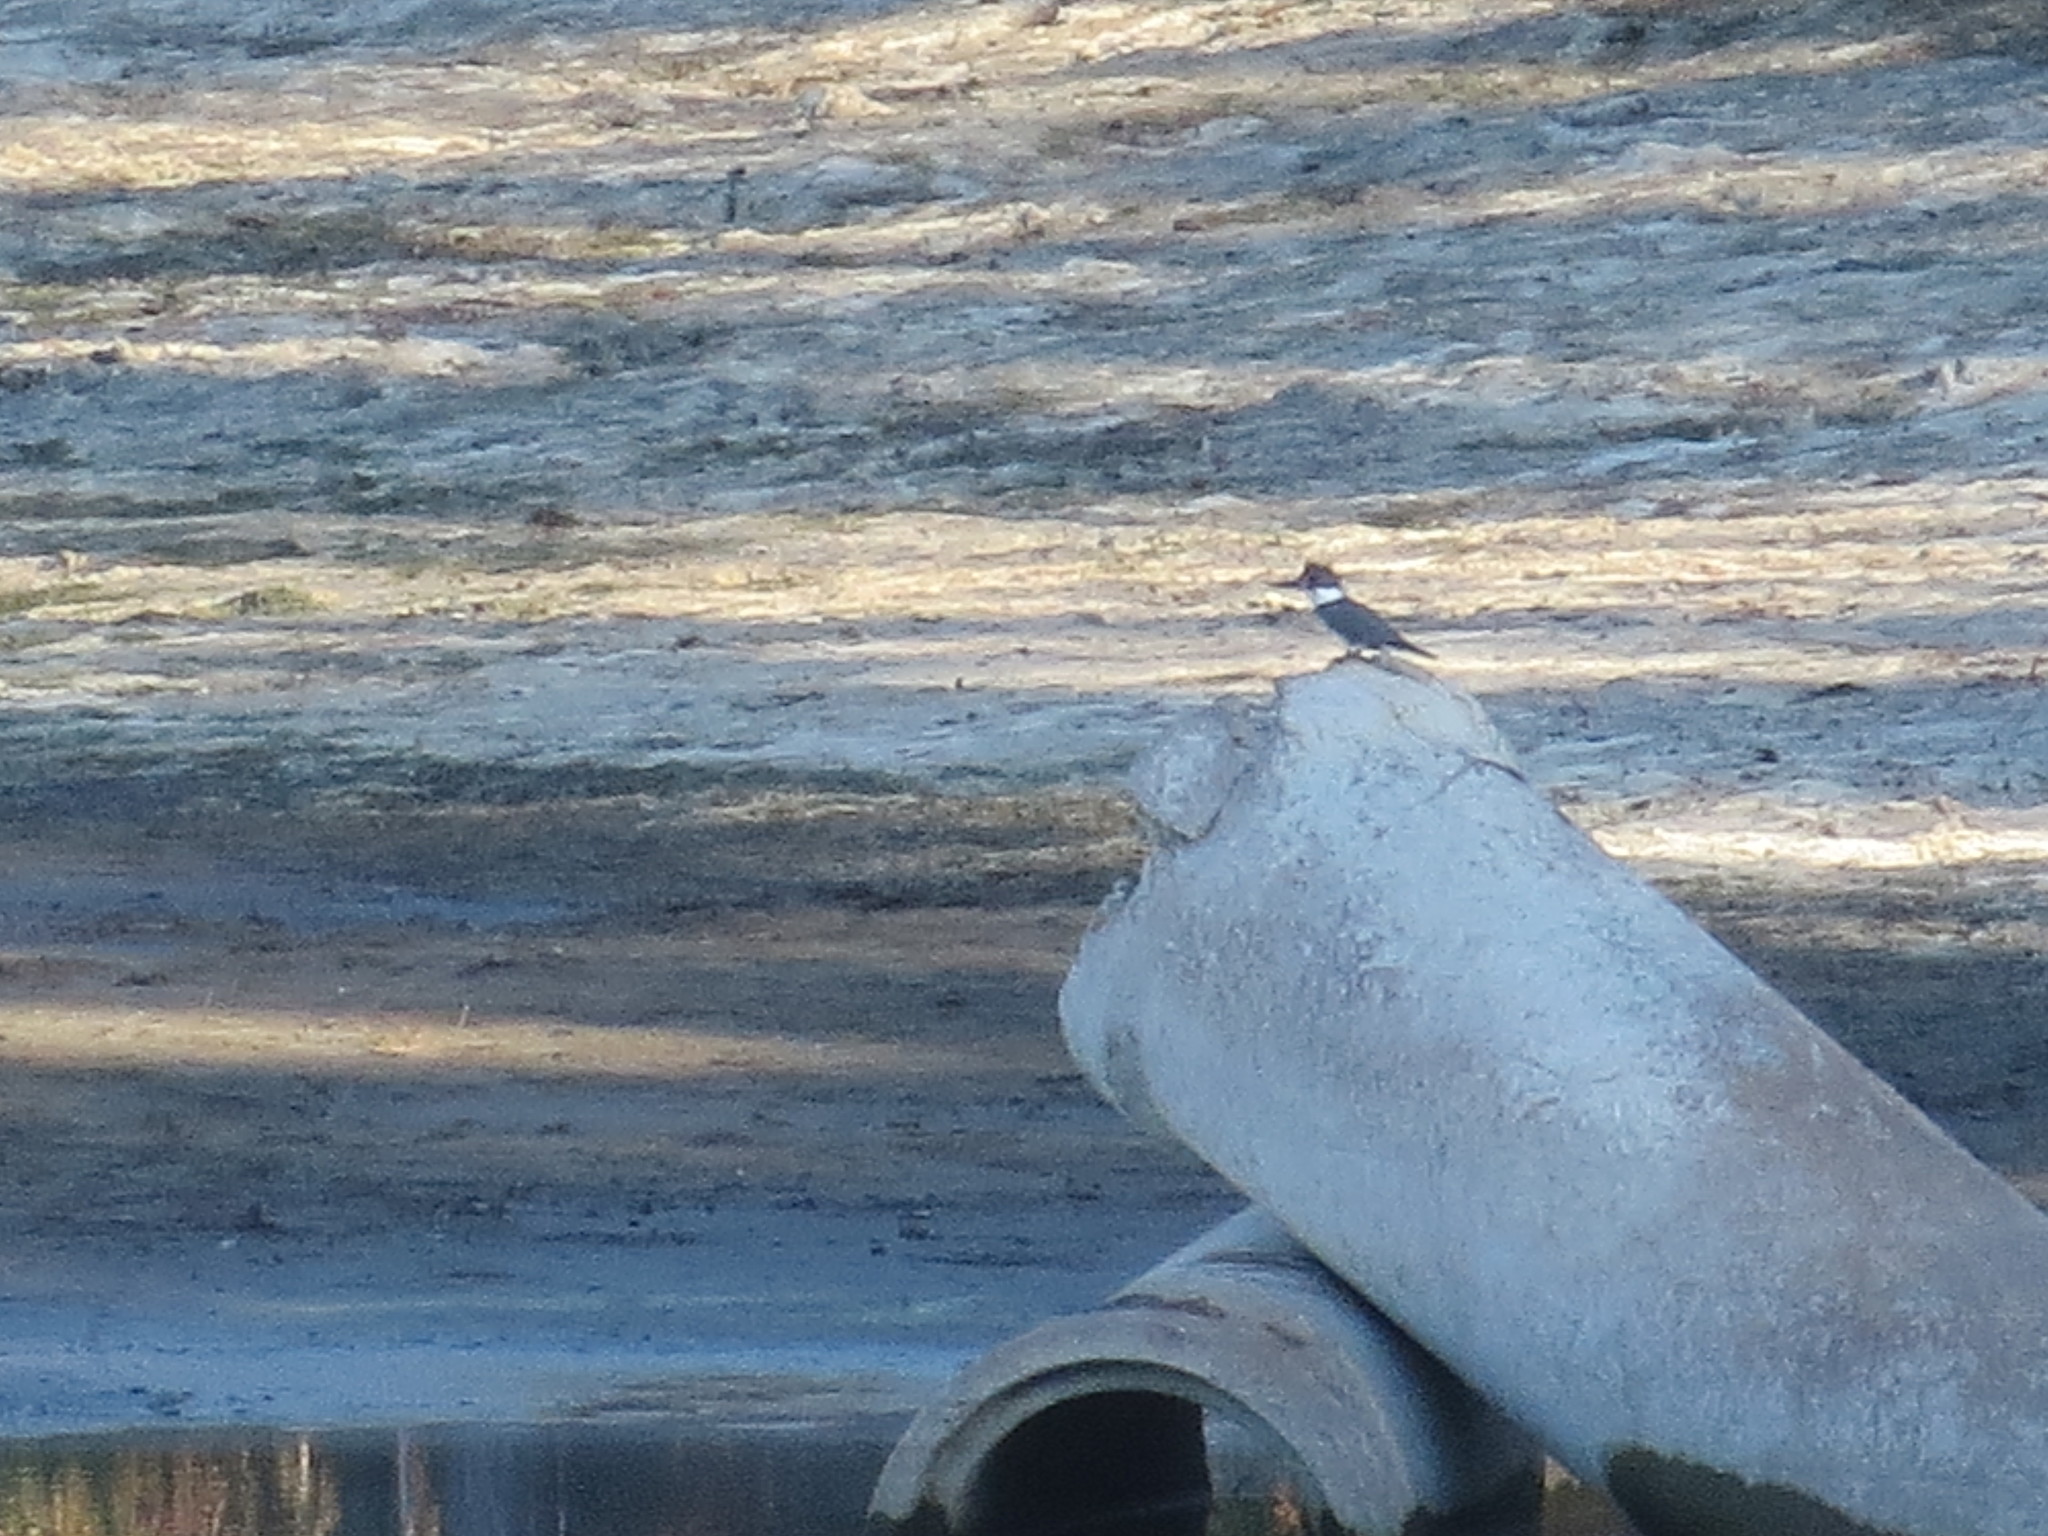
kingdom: Animalia
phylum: Chordata
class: Aves
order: Coraciiformes
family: Alcedinidae
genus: Megaceryle
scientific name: Megaceryle alcyon
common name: Belted kingfisher
